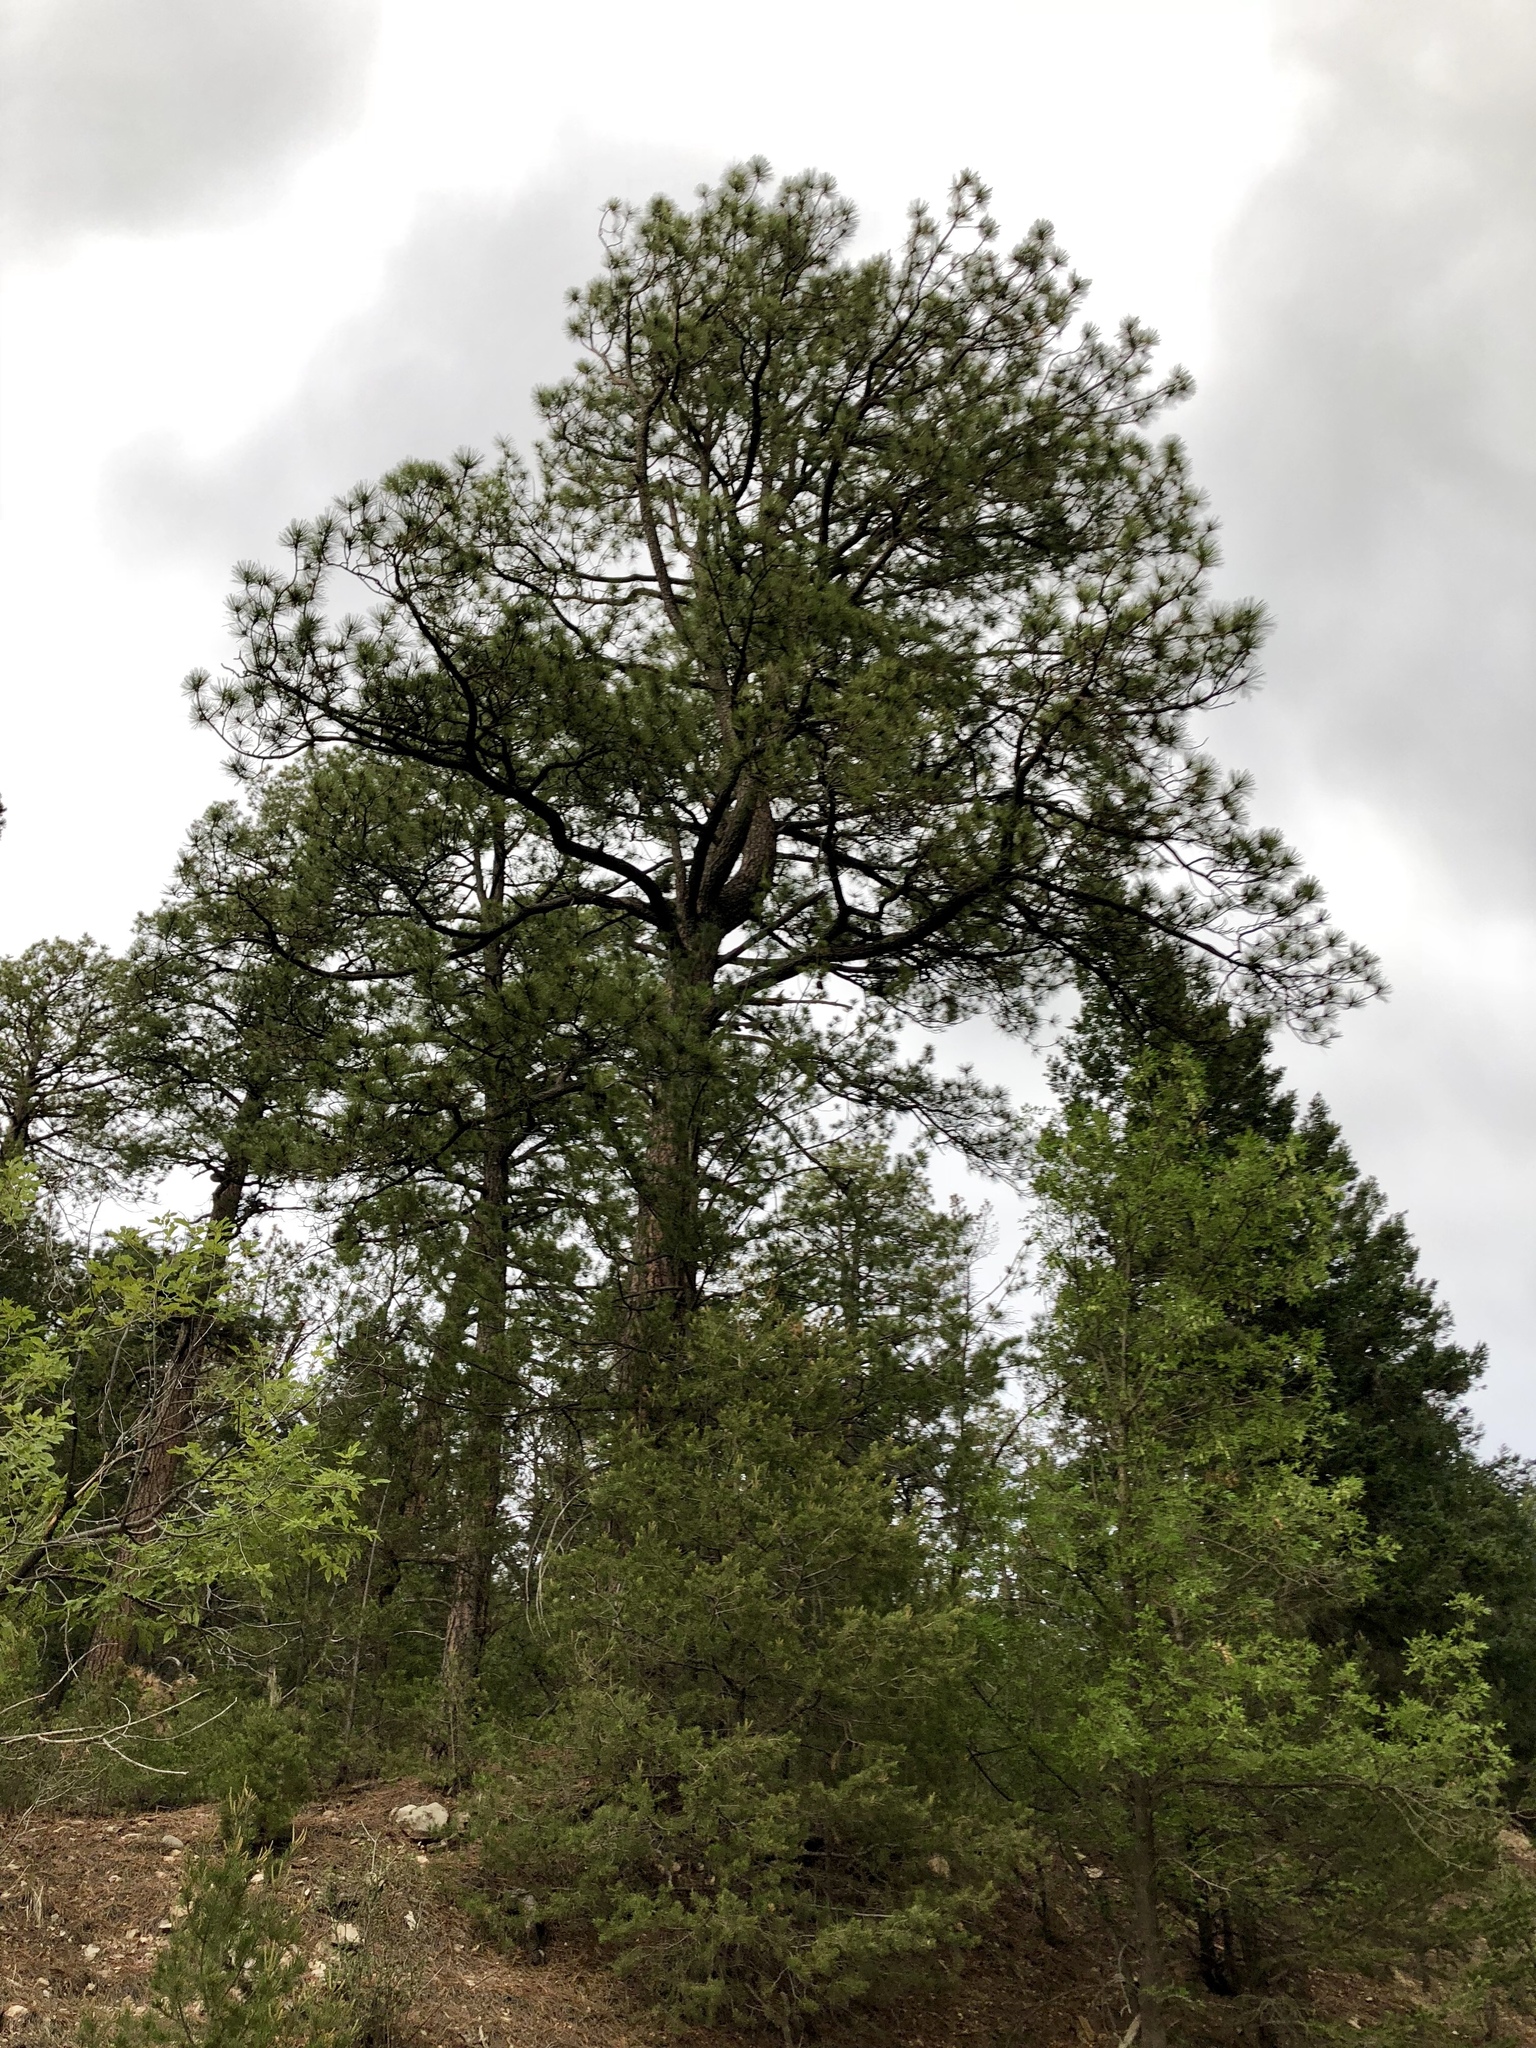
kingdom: Plantae
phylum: Tracheophyta
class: Pinopsida
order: Pinales
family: Pinaceae
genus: Pinus
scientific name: Pinus ponderosa
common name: Western yellow-pine
